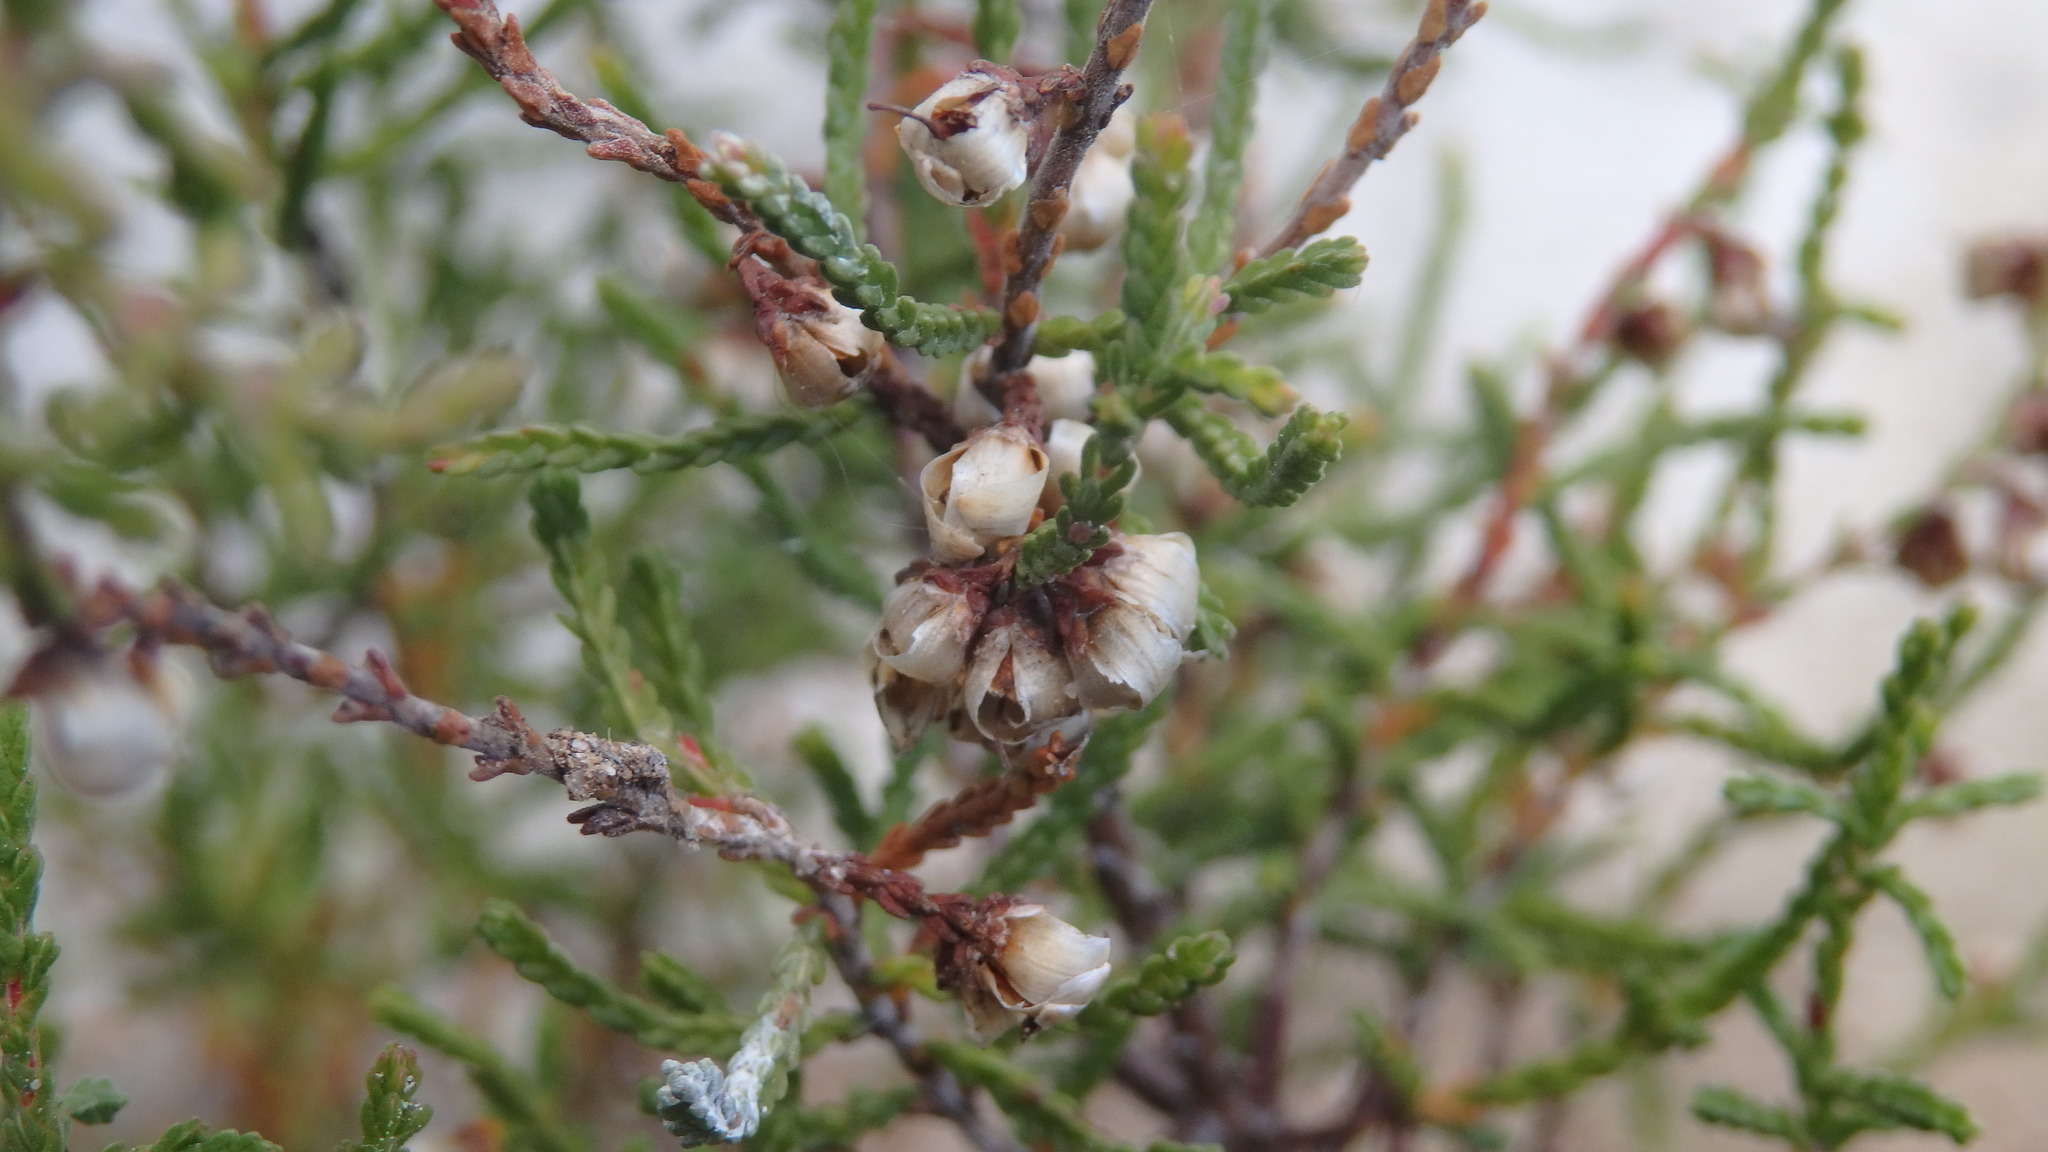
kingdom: Plantae
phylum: Tracheophyta
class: Magnoliopsida
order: Ericales
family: Ericaceae
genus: Calluna
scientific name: Calluna vulgaris
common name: Heather
